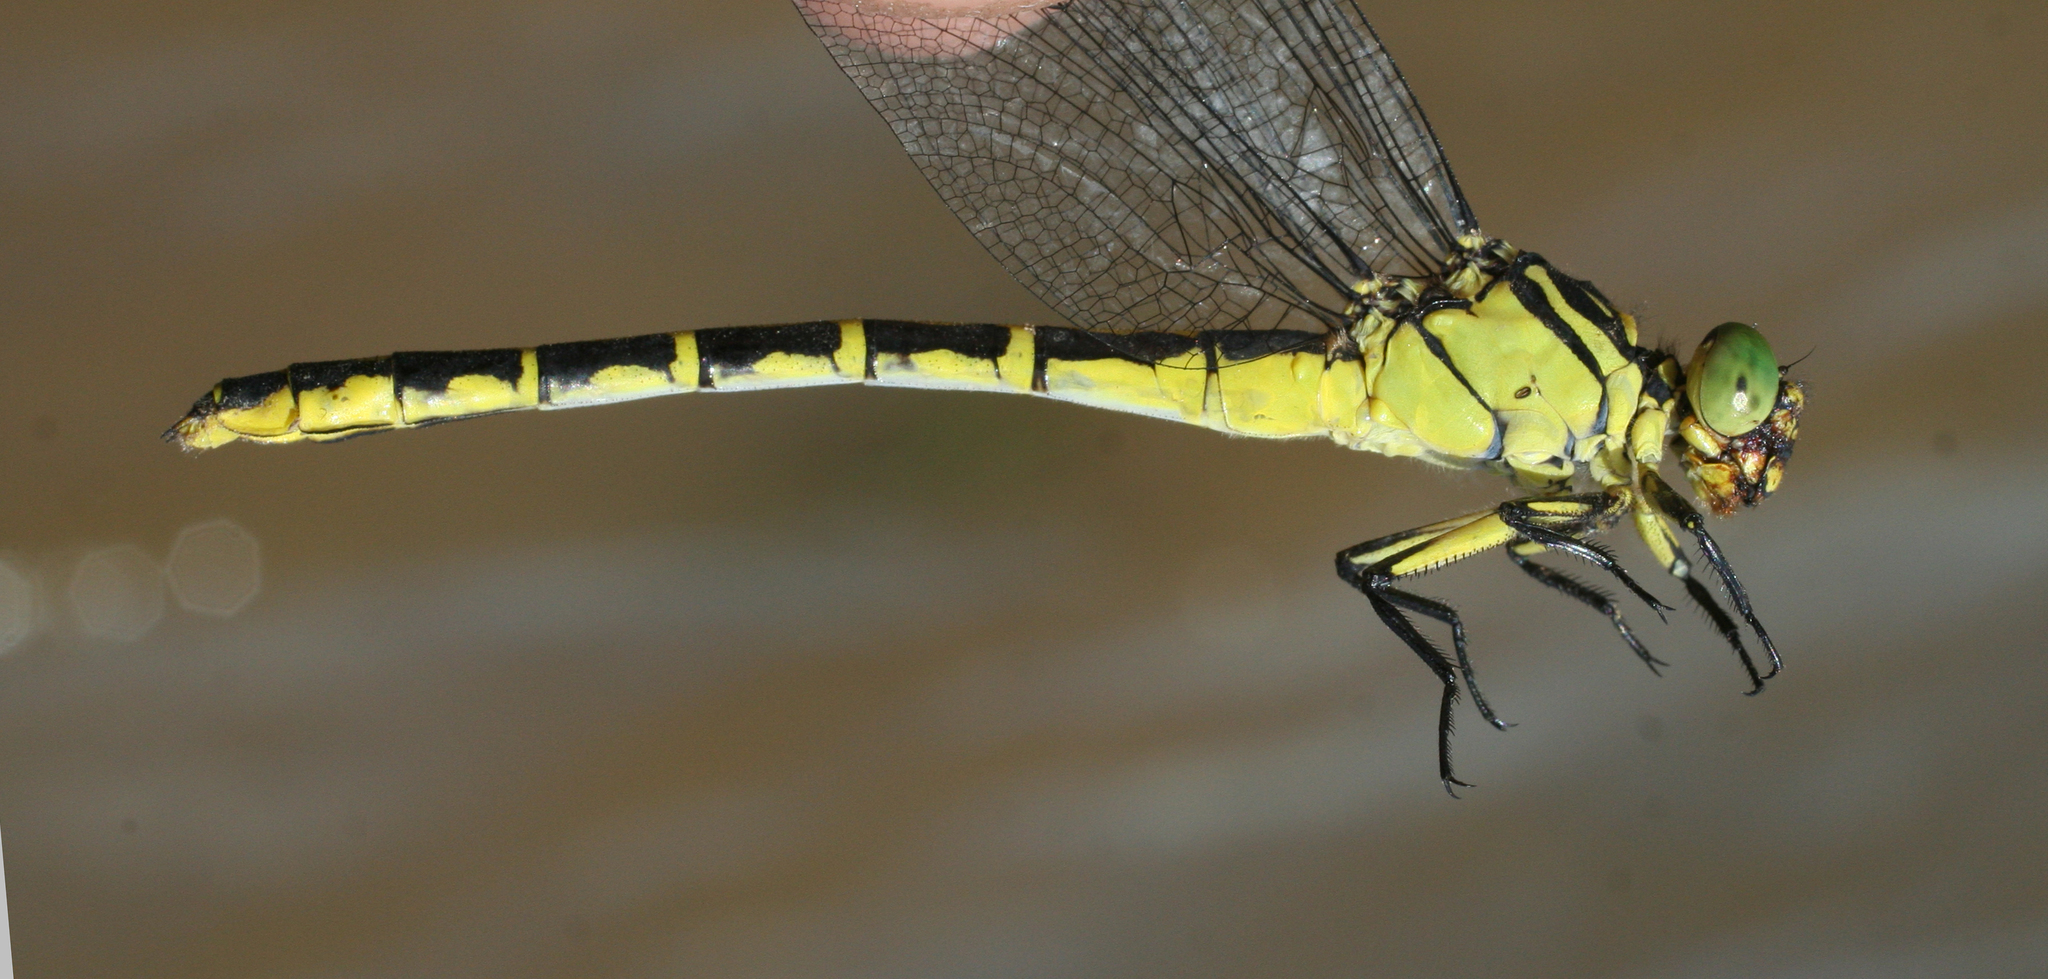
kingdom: Animalia
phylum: Arthropoda
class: Insecta
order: Odonata
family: Gomphidae
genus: Stylurus
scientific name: Stylurus occultus
